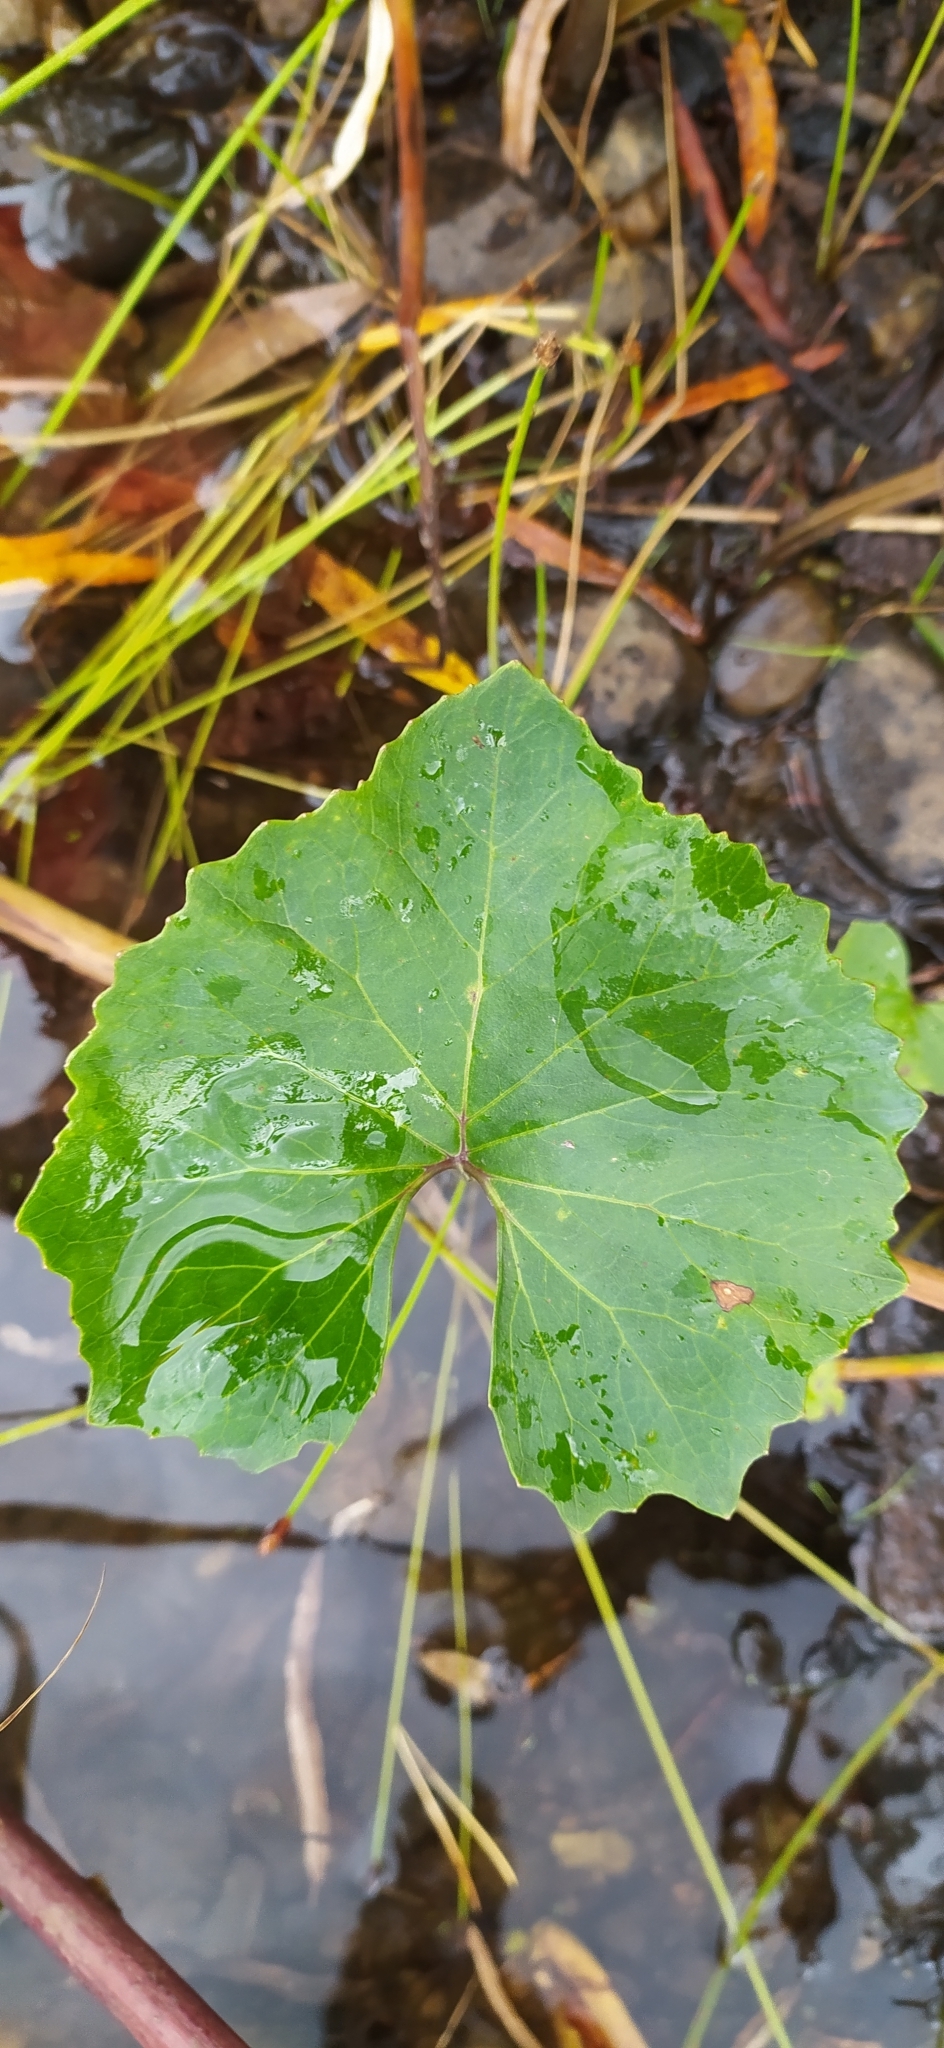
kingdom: Plantae
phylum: Tracheophyta
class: Magnoliopsida
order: Asterales
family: Asteraceae
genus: Petasites
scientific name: Petasites radiatus
